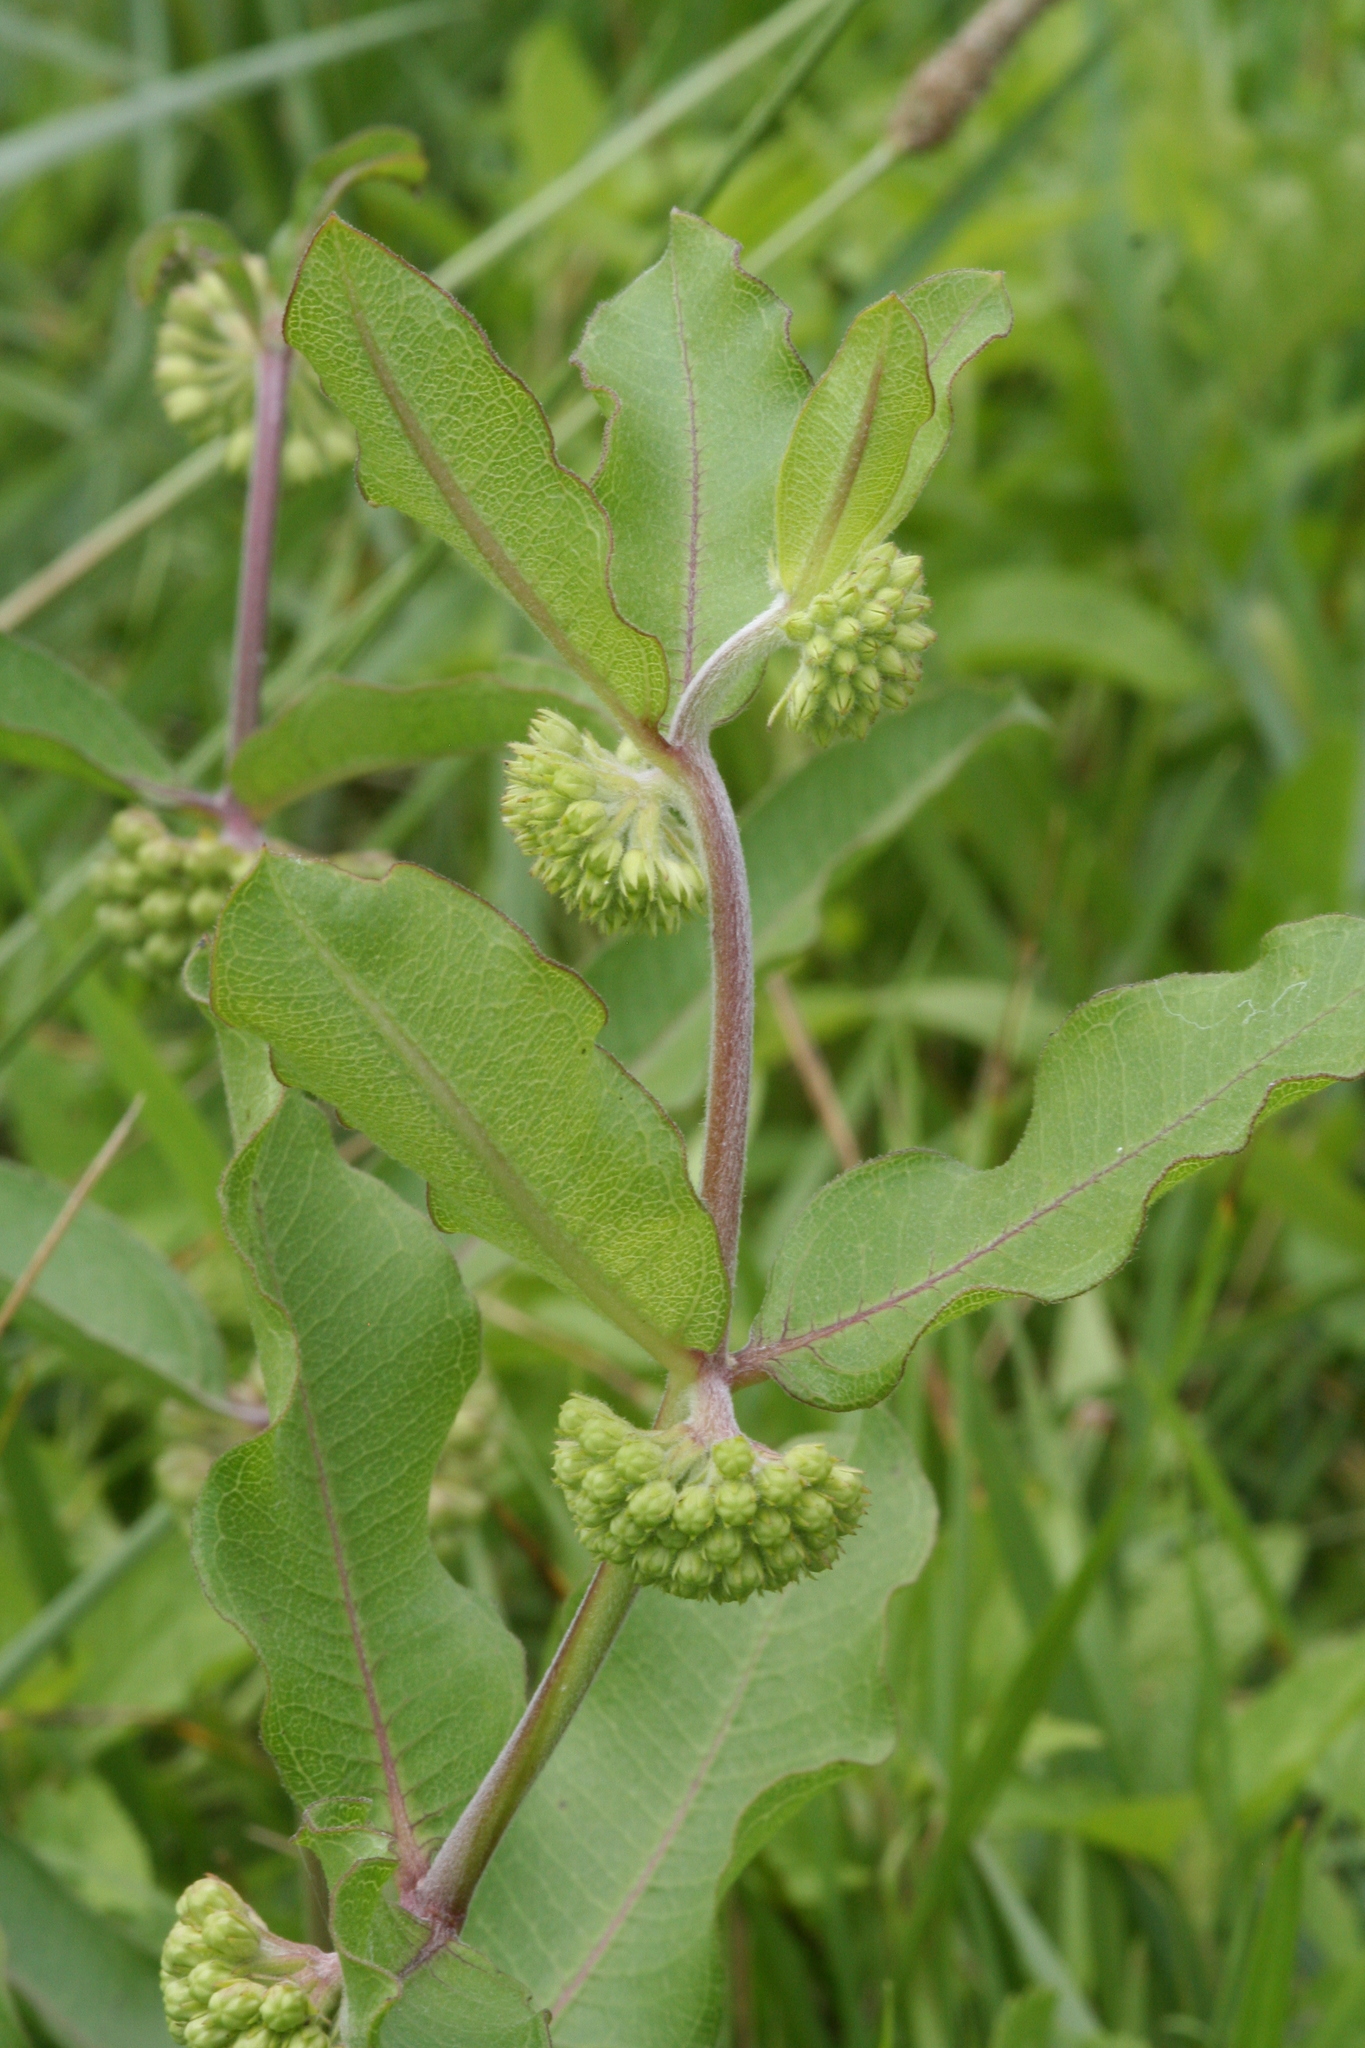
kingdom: Plantae
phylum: Tracheophyta
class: Magnoliopsida
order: Gentianales
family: Apocynaceae
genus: Asclepias
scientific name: Asclepias viridiflora
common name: Green comet milkweed
